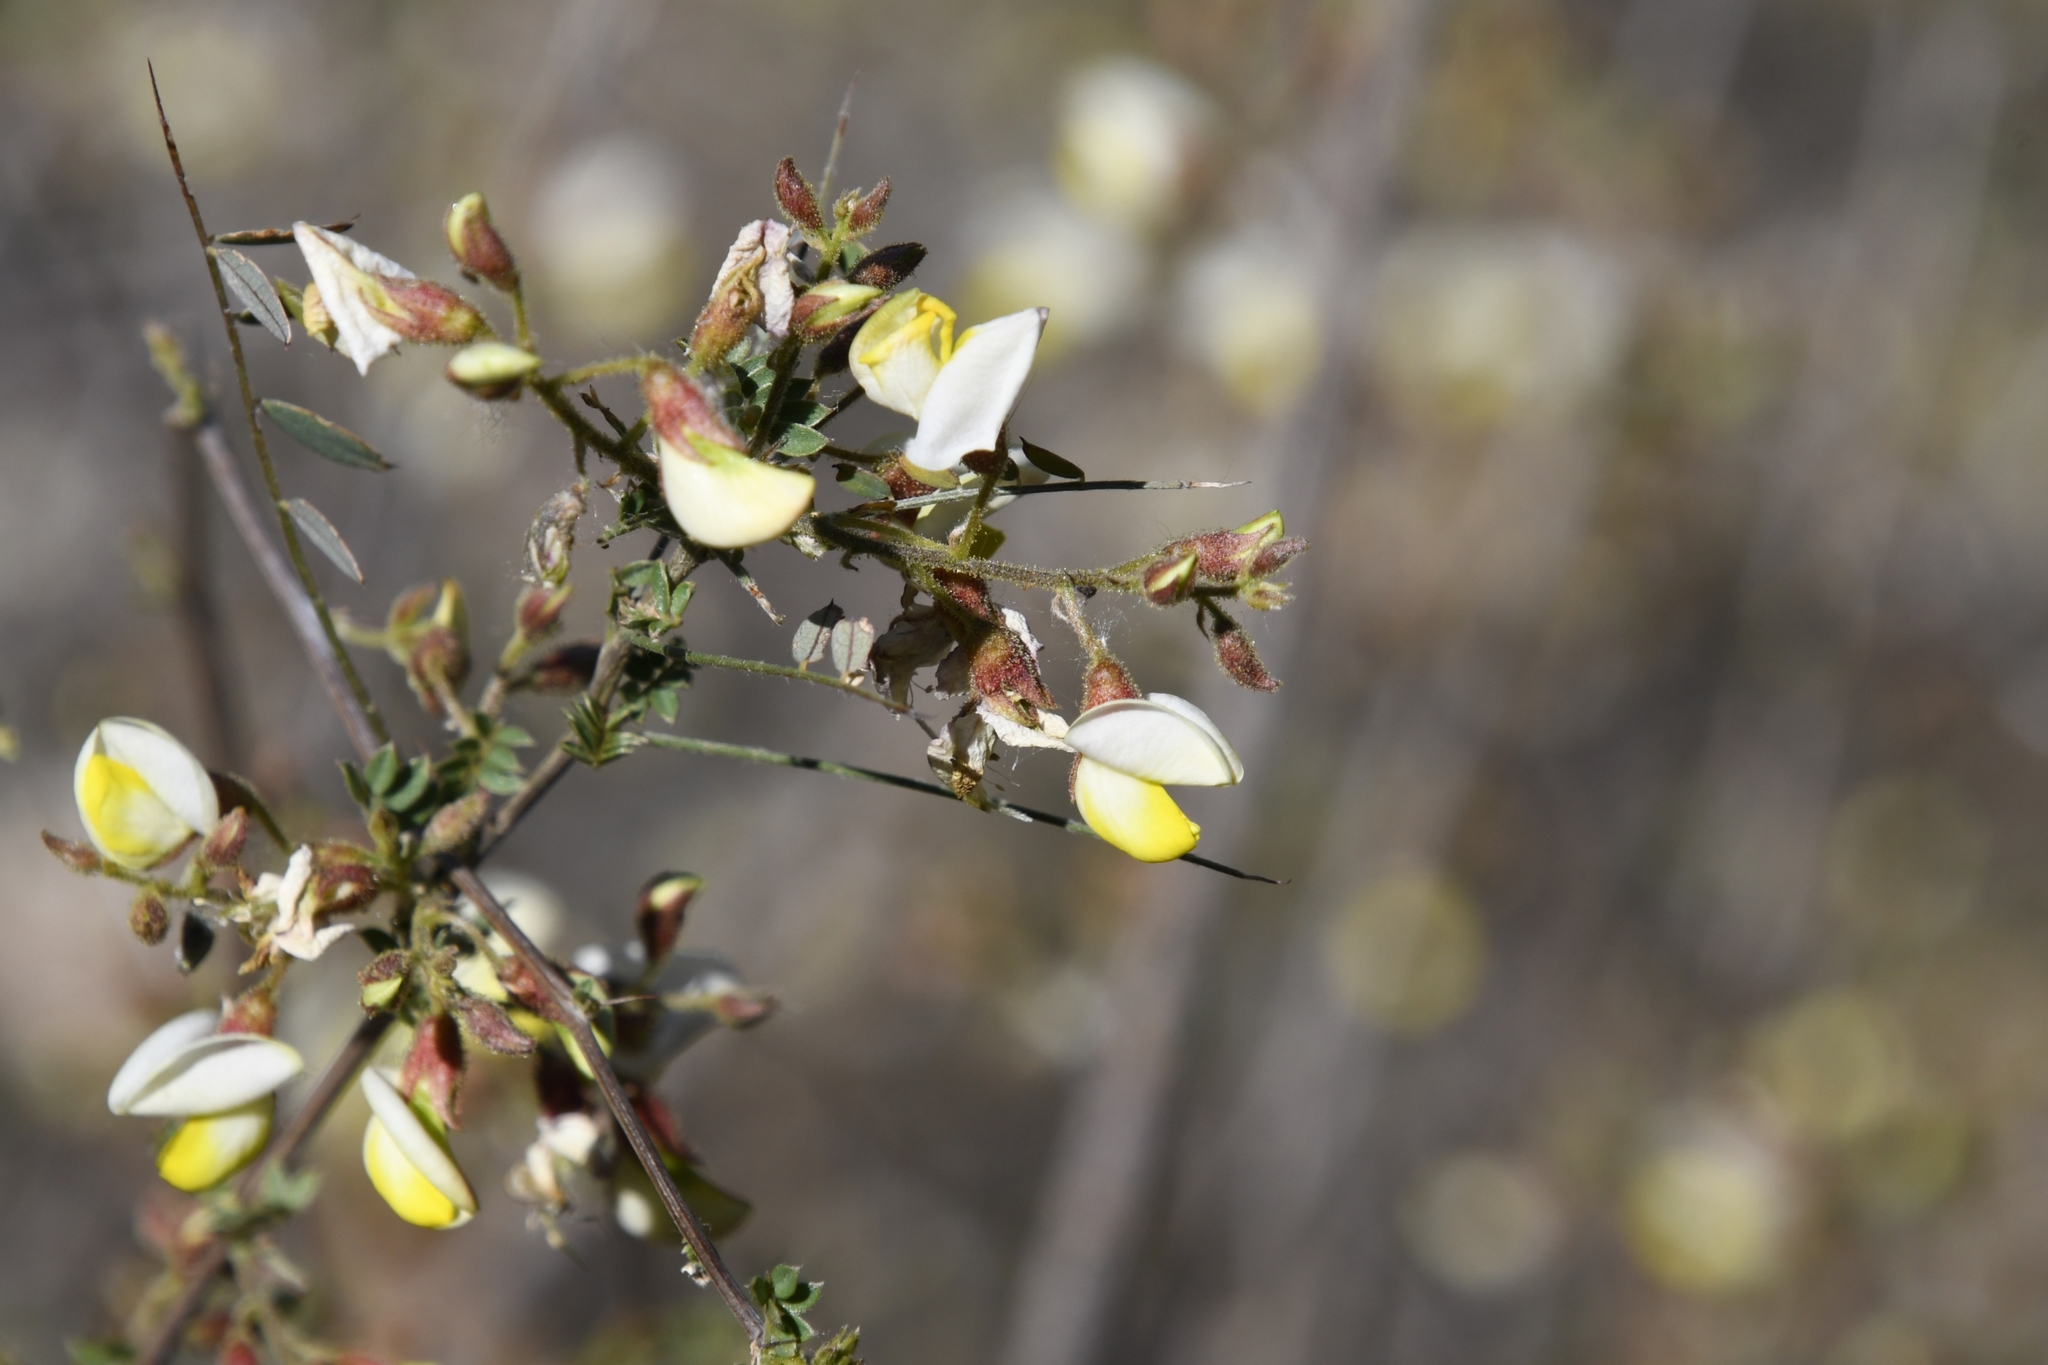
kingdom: Plantae
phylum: Tracheophyta
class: Magnoliopsida
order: Fabales
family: Fabaceae
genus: Coursetia
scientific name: Coursetia glandulosa
